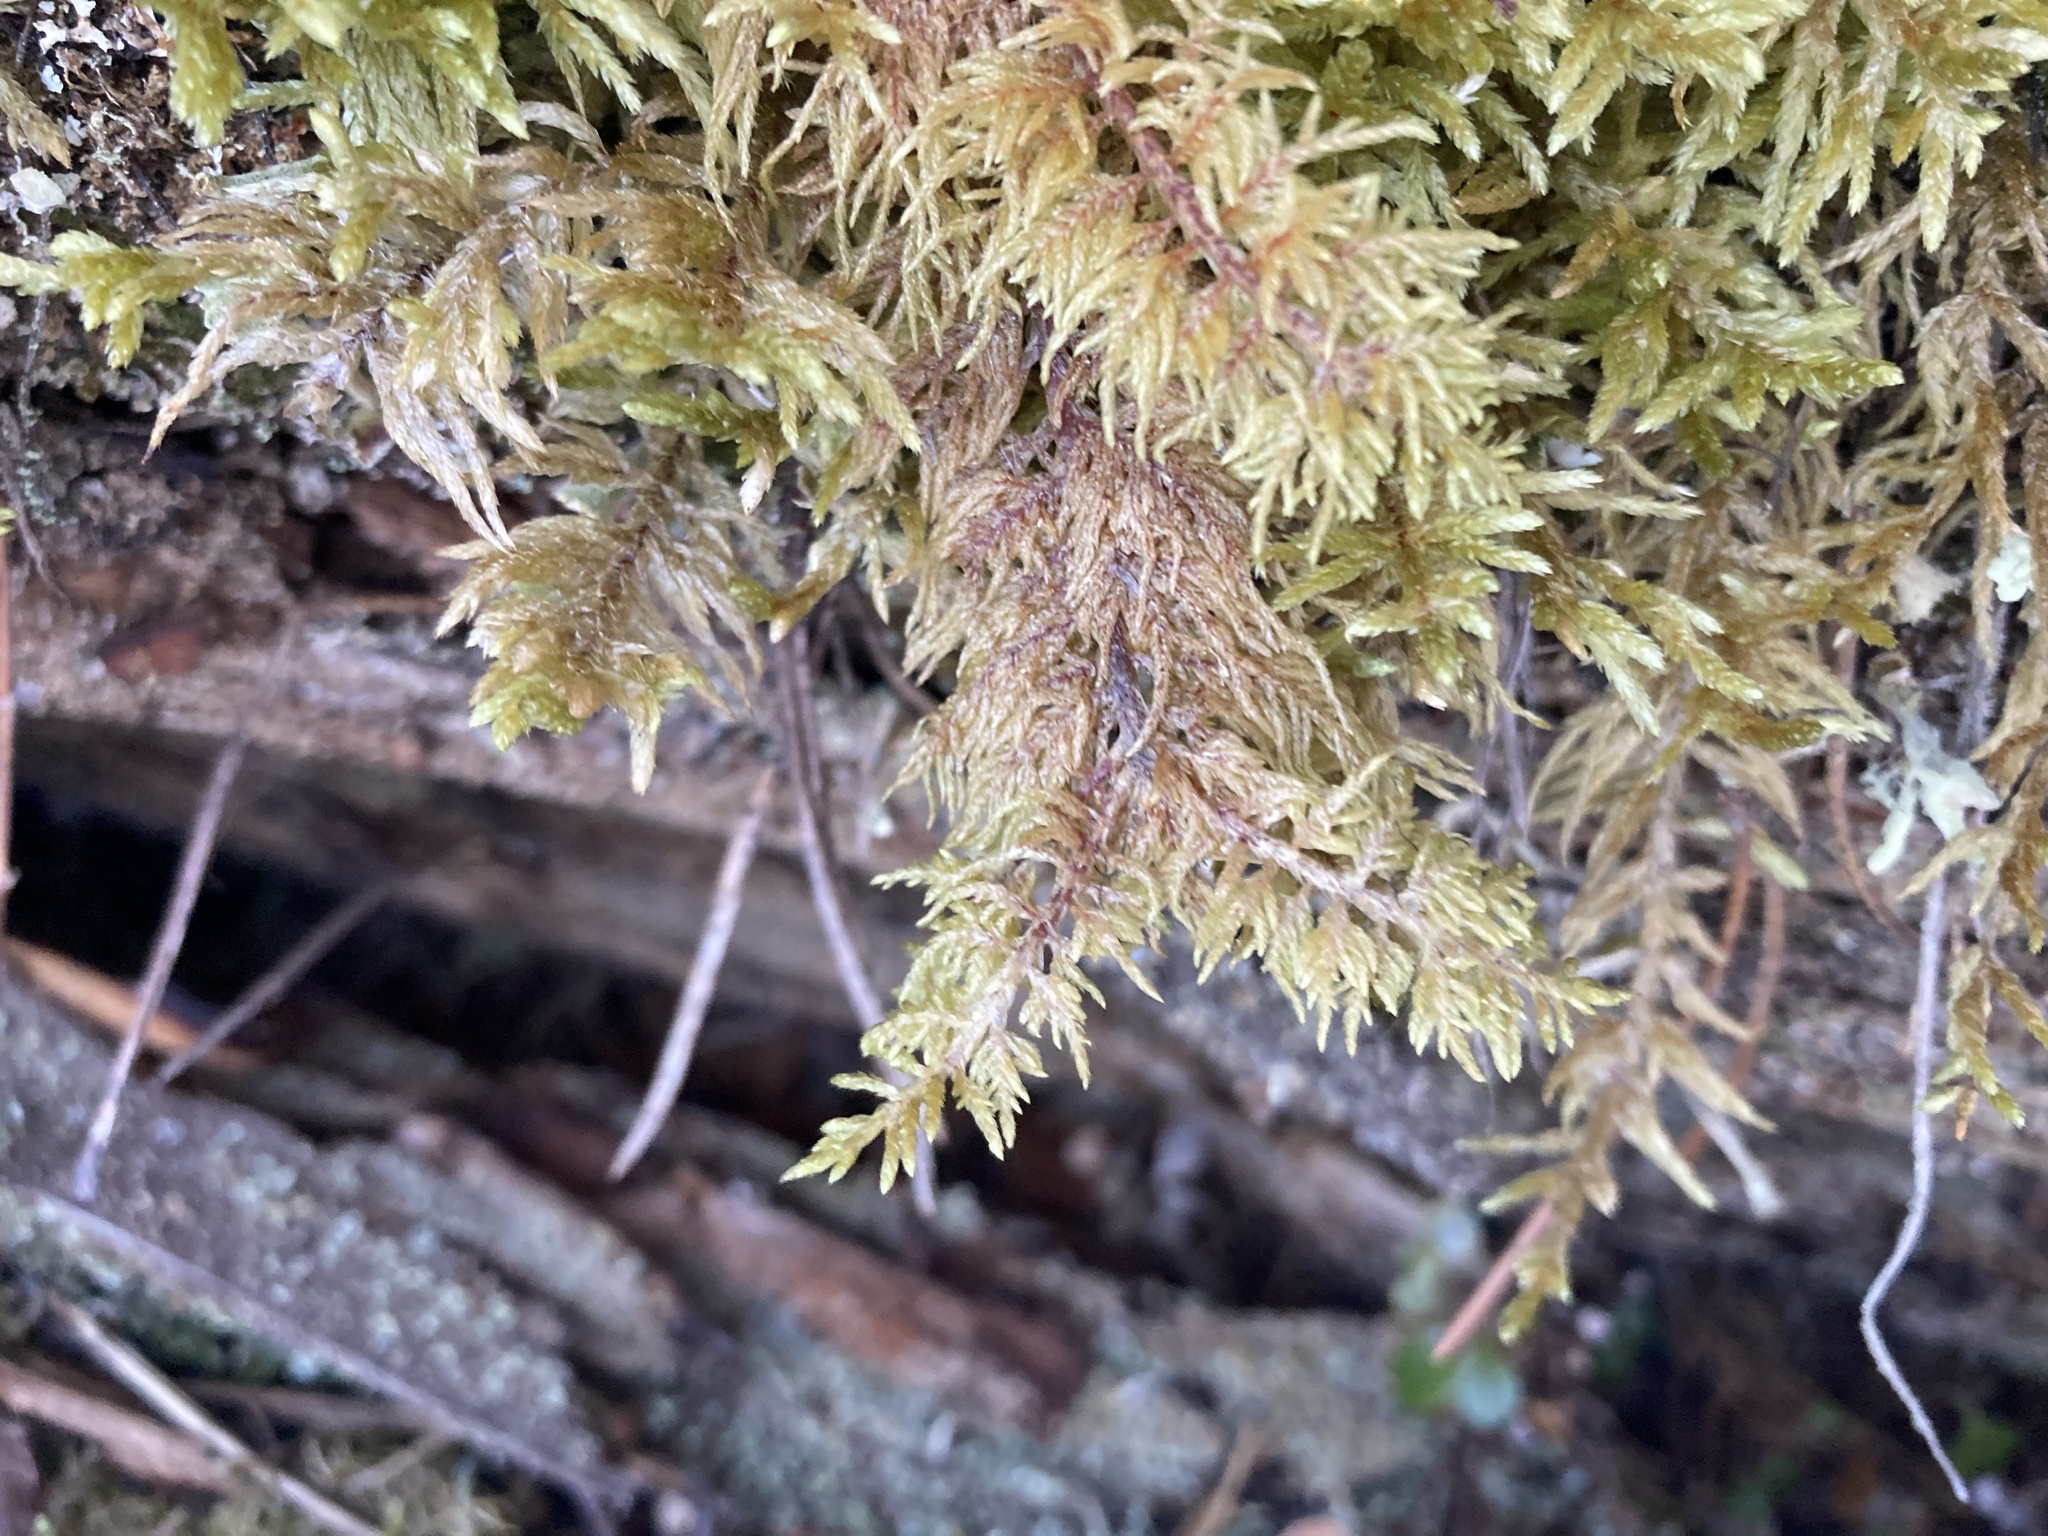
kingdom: Plantae
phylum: Bryophyta
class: Bryopsida
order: Hypnales
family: Hylocomiaceae
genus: Hylocomium
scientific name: Hylocomium splendens
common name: Stairstep moss
